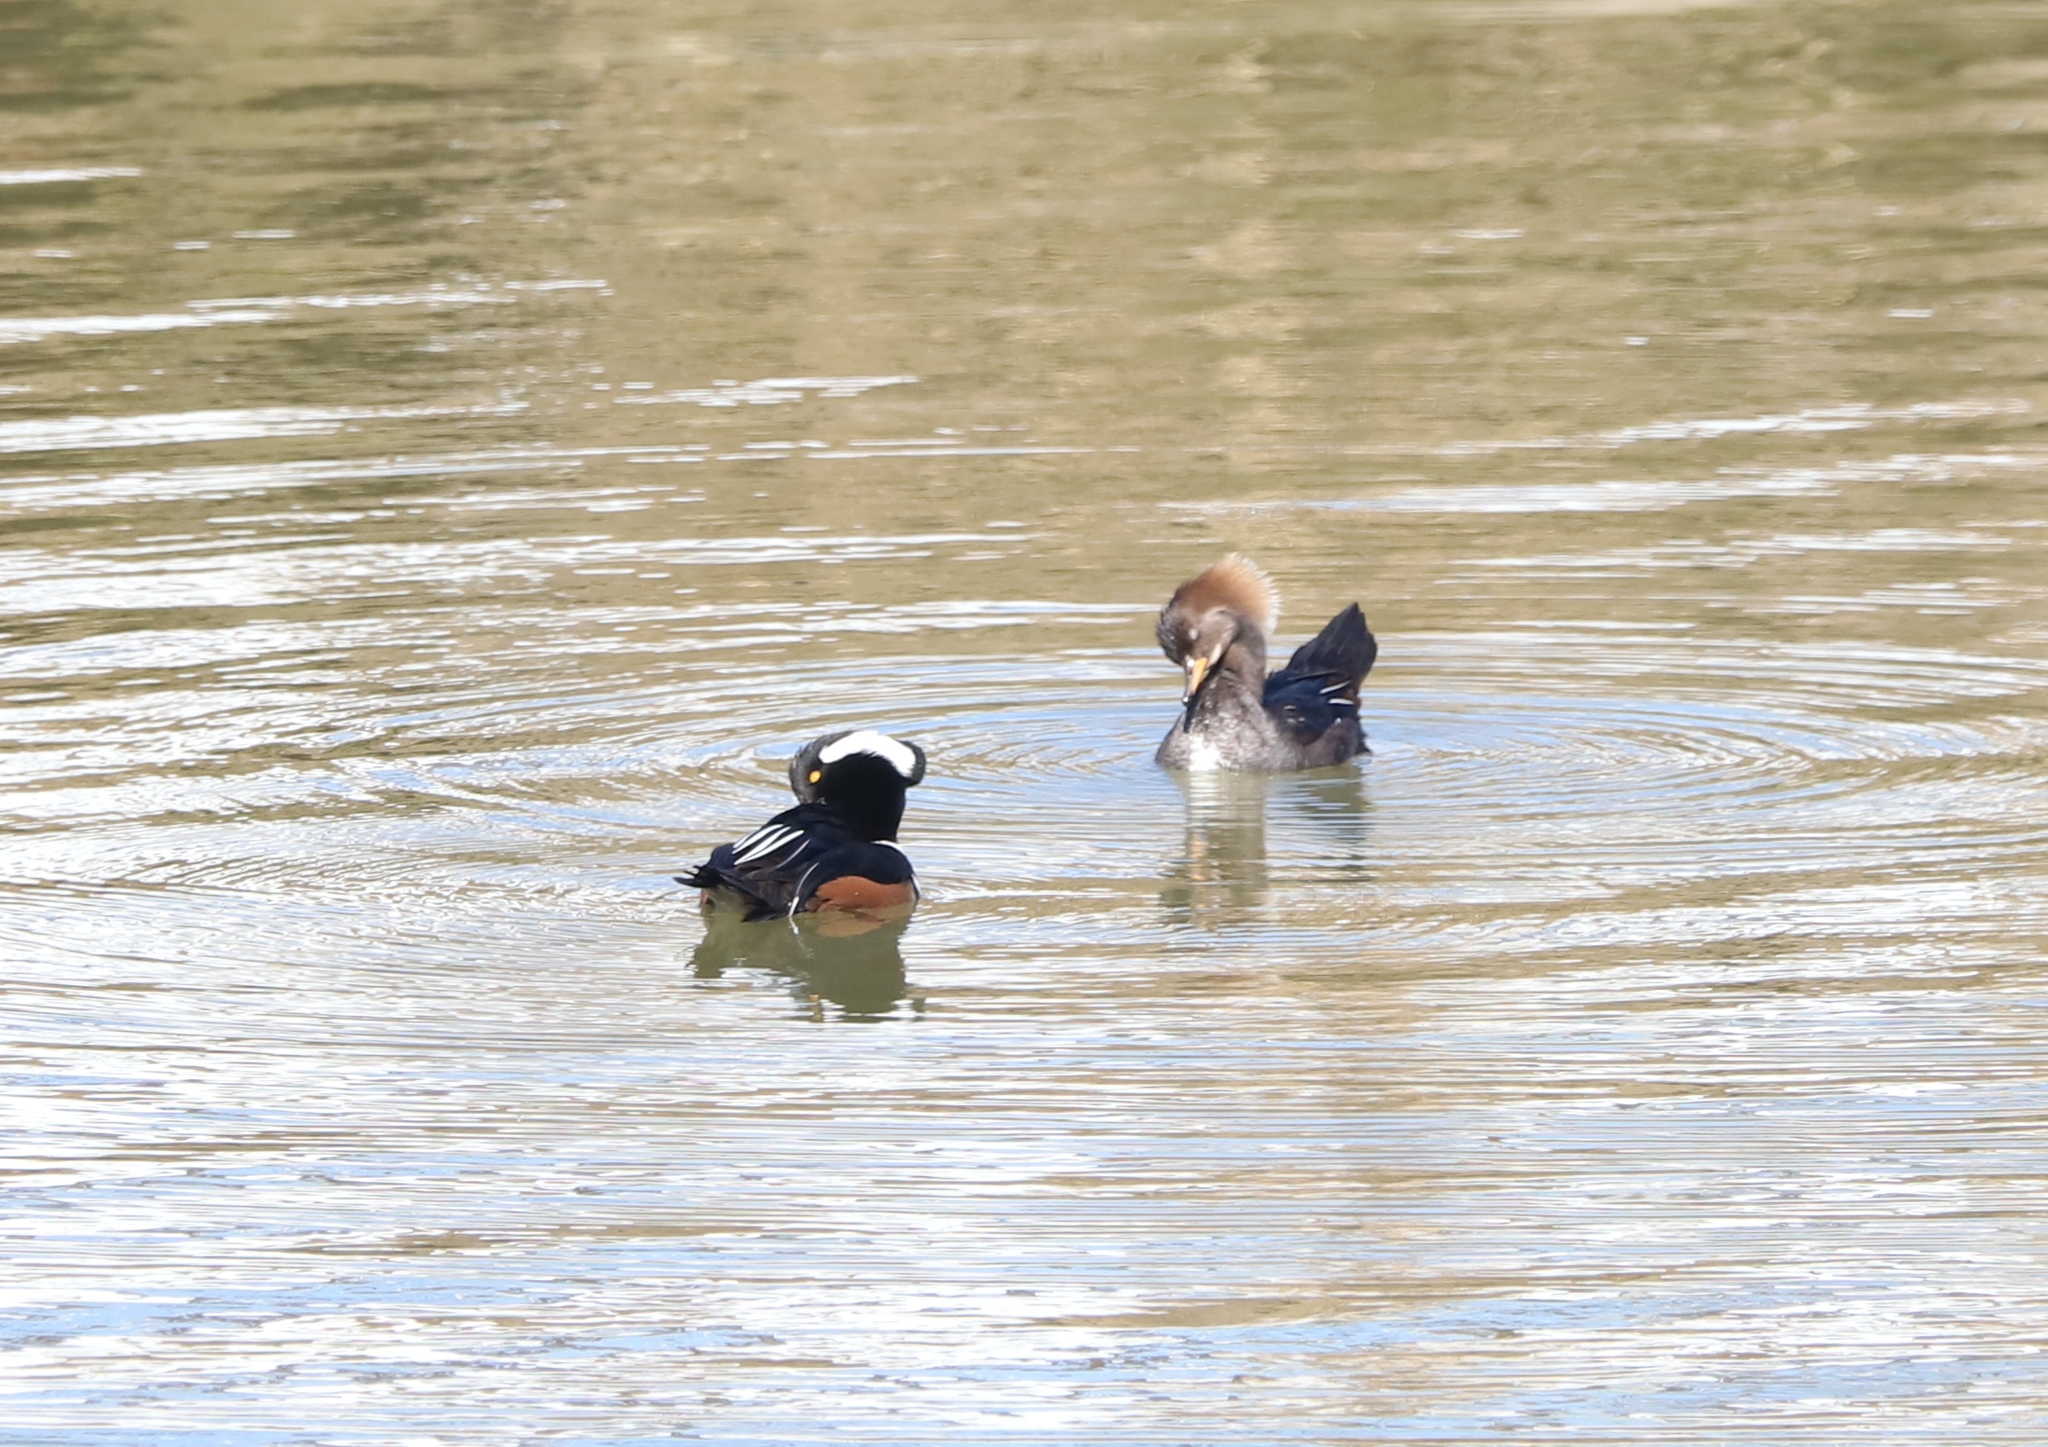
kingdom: Animalia
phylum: Chordata
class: Aves
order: Anseriformes
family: Anatidae
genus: Lophodytes
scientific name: Lophodytes cucullatus
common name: Hooded merganser
